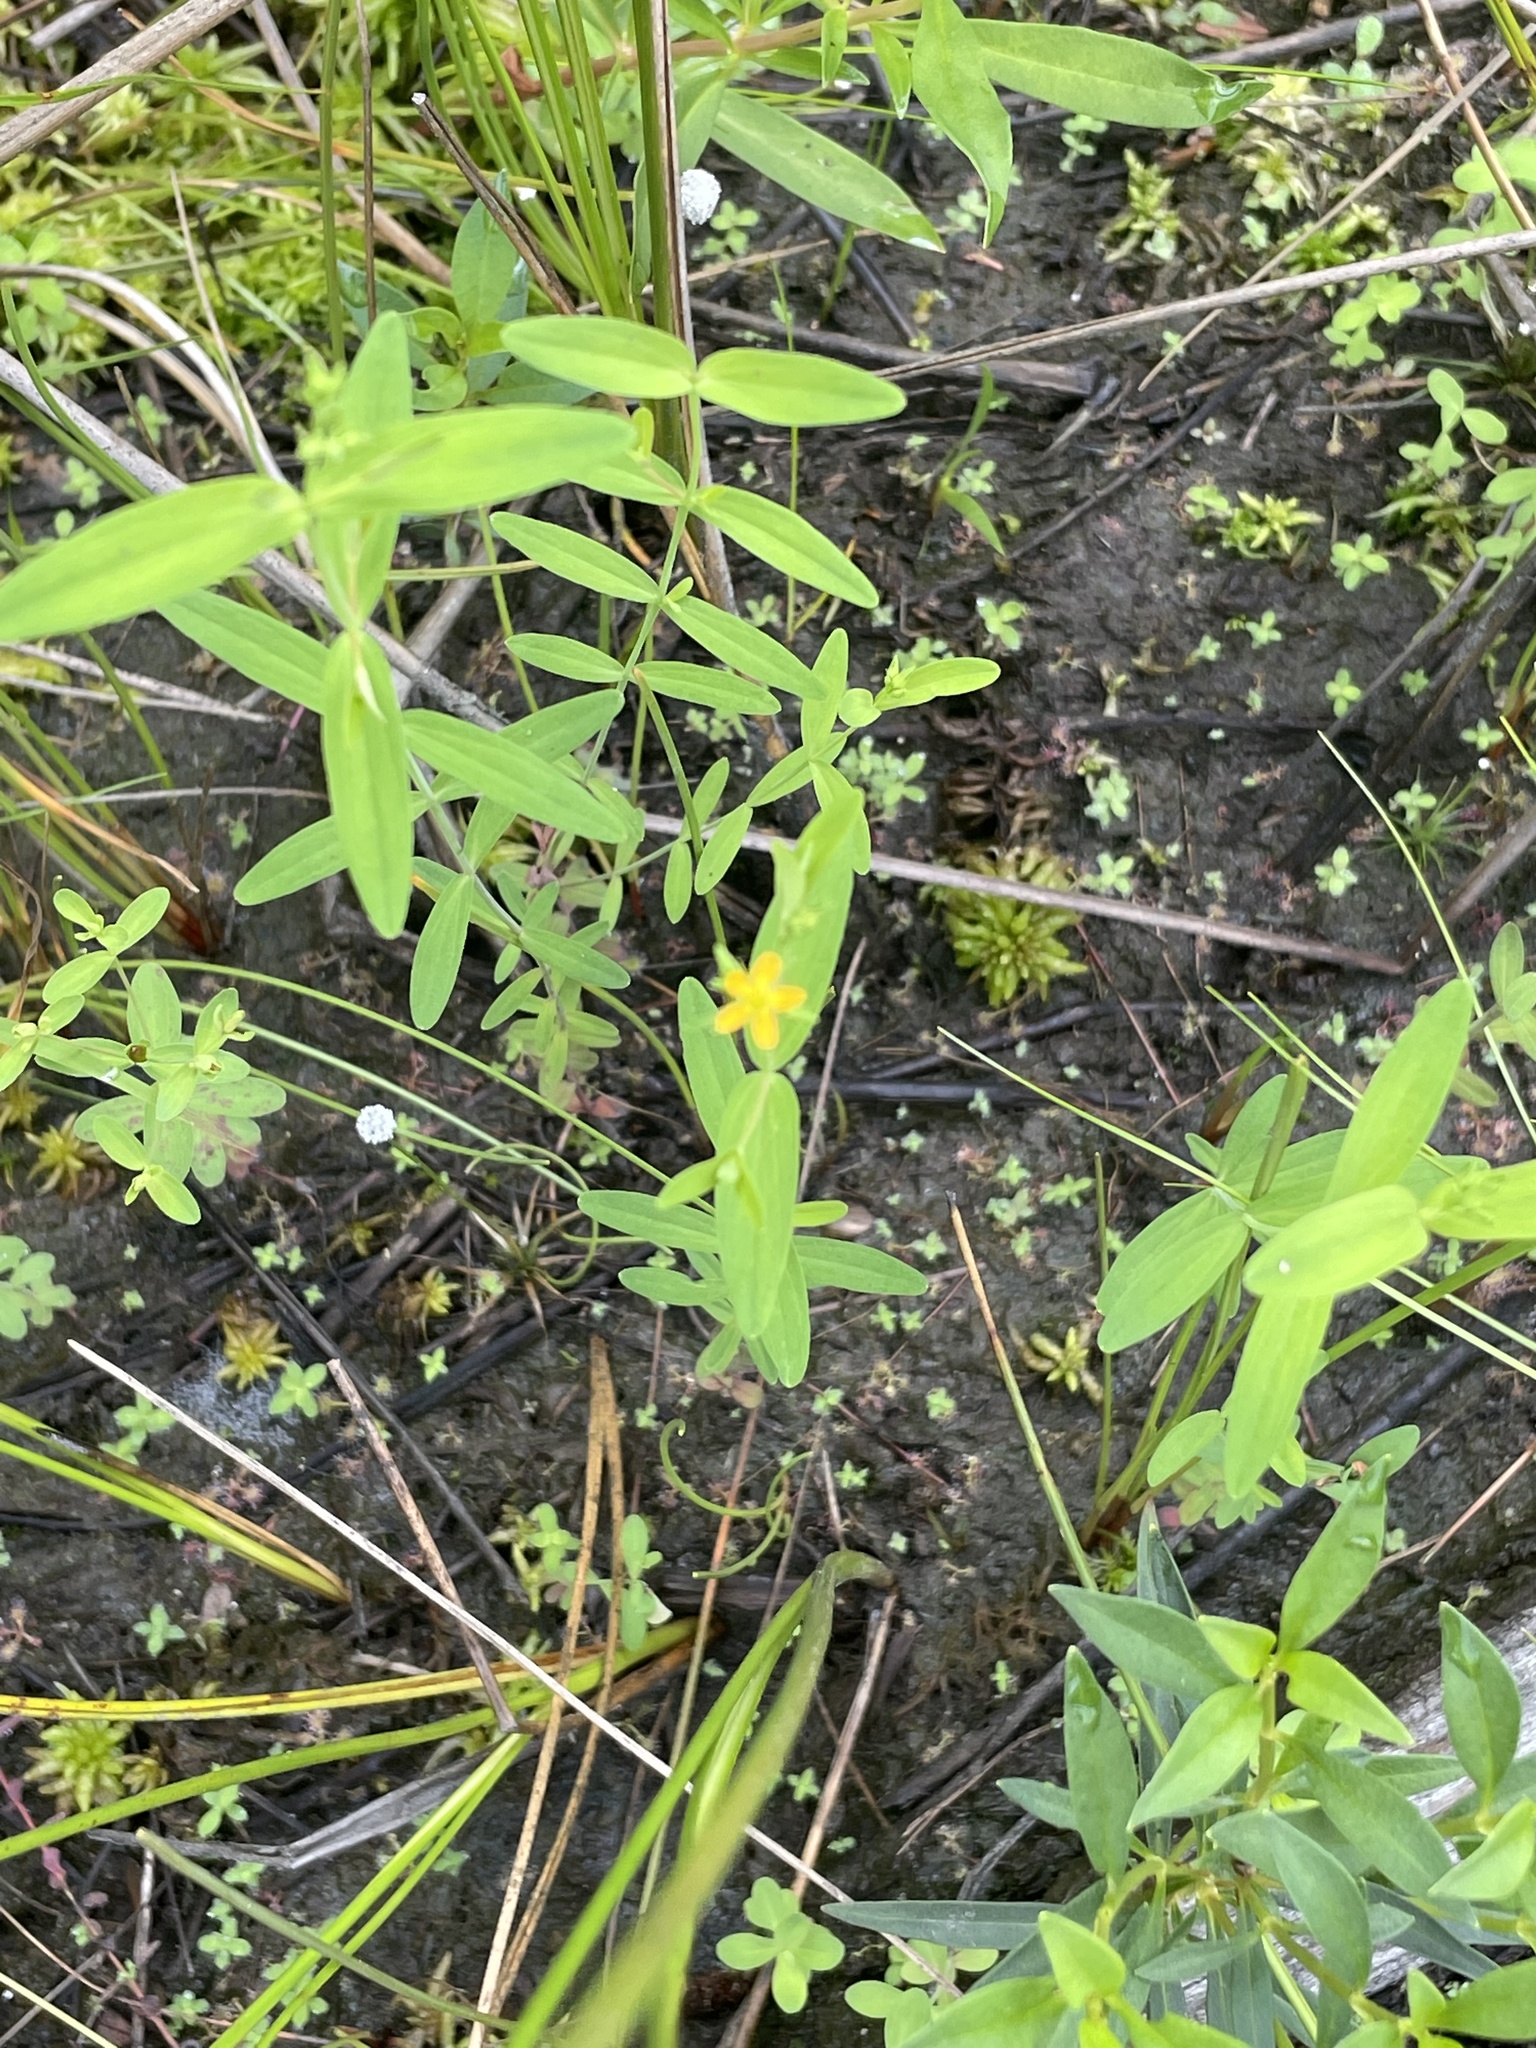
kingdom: Plantae
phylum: Tracheophyta
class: Magnoliopsida
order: Malpighiales
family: Hypericaceae
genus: Hypericum
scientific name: Hypericum mutilum
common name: Dwarf st. john's-wort
